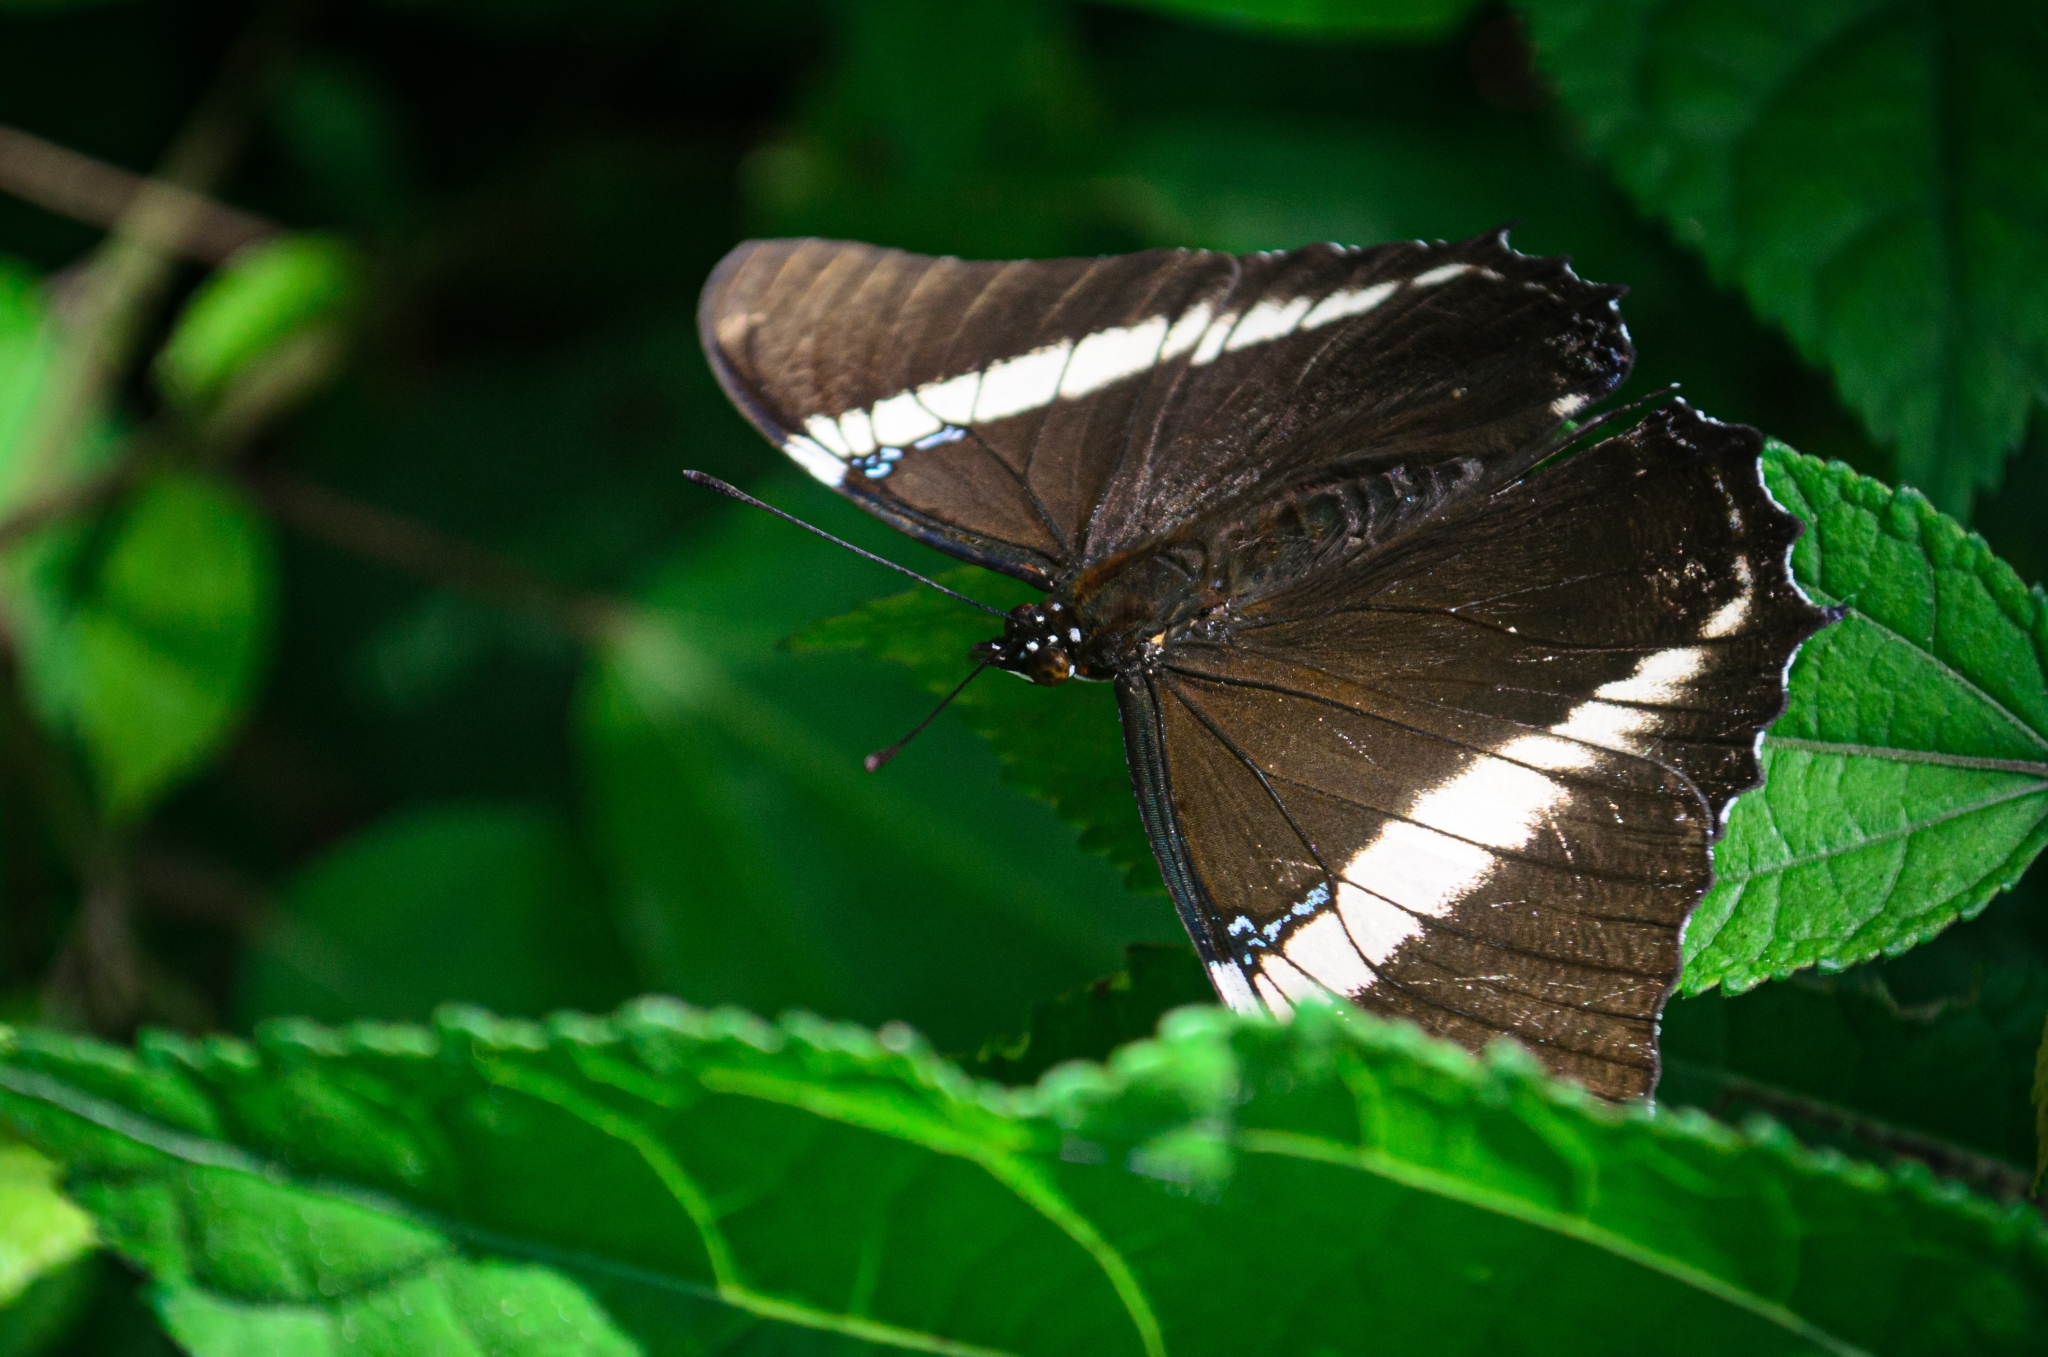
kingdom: Animalia
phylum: Arthropoda
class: Insecta
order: Lepidoptera
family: Nymphalidae
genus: Siproeta
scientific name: Siproeta epaphus
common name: Rusty-tipped page
